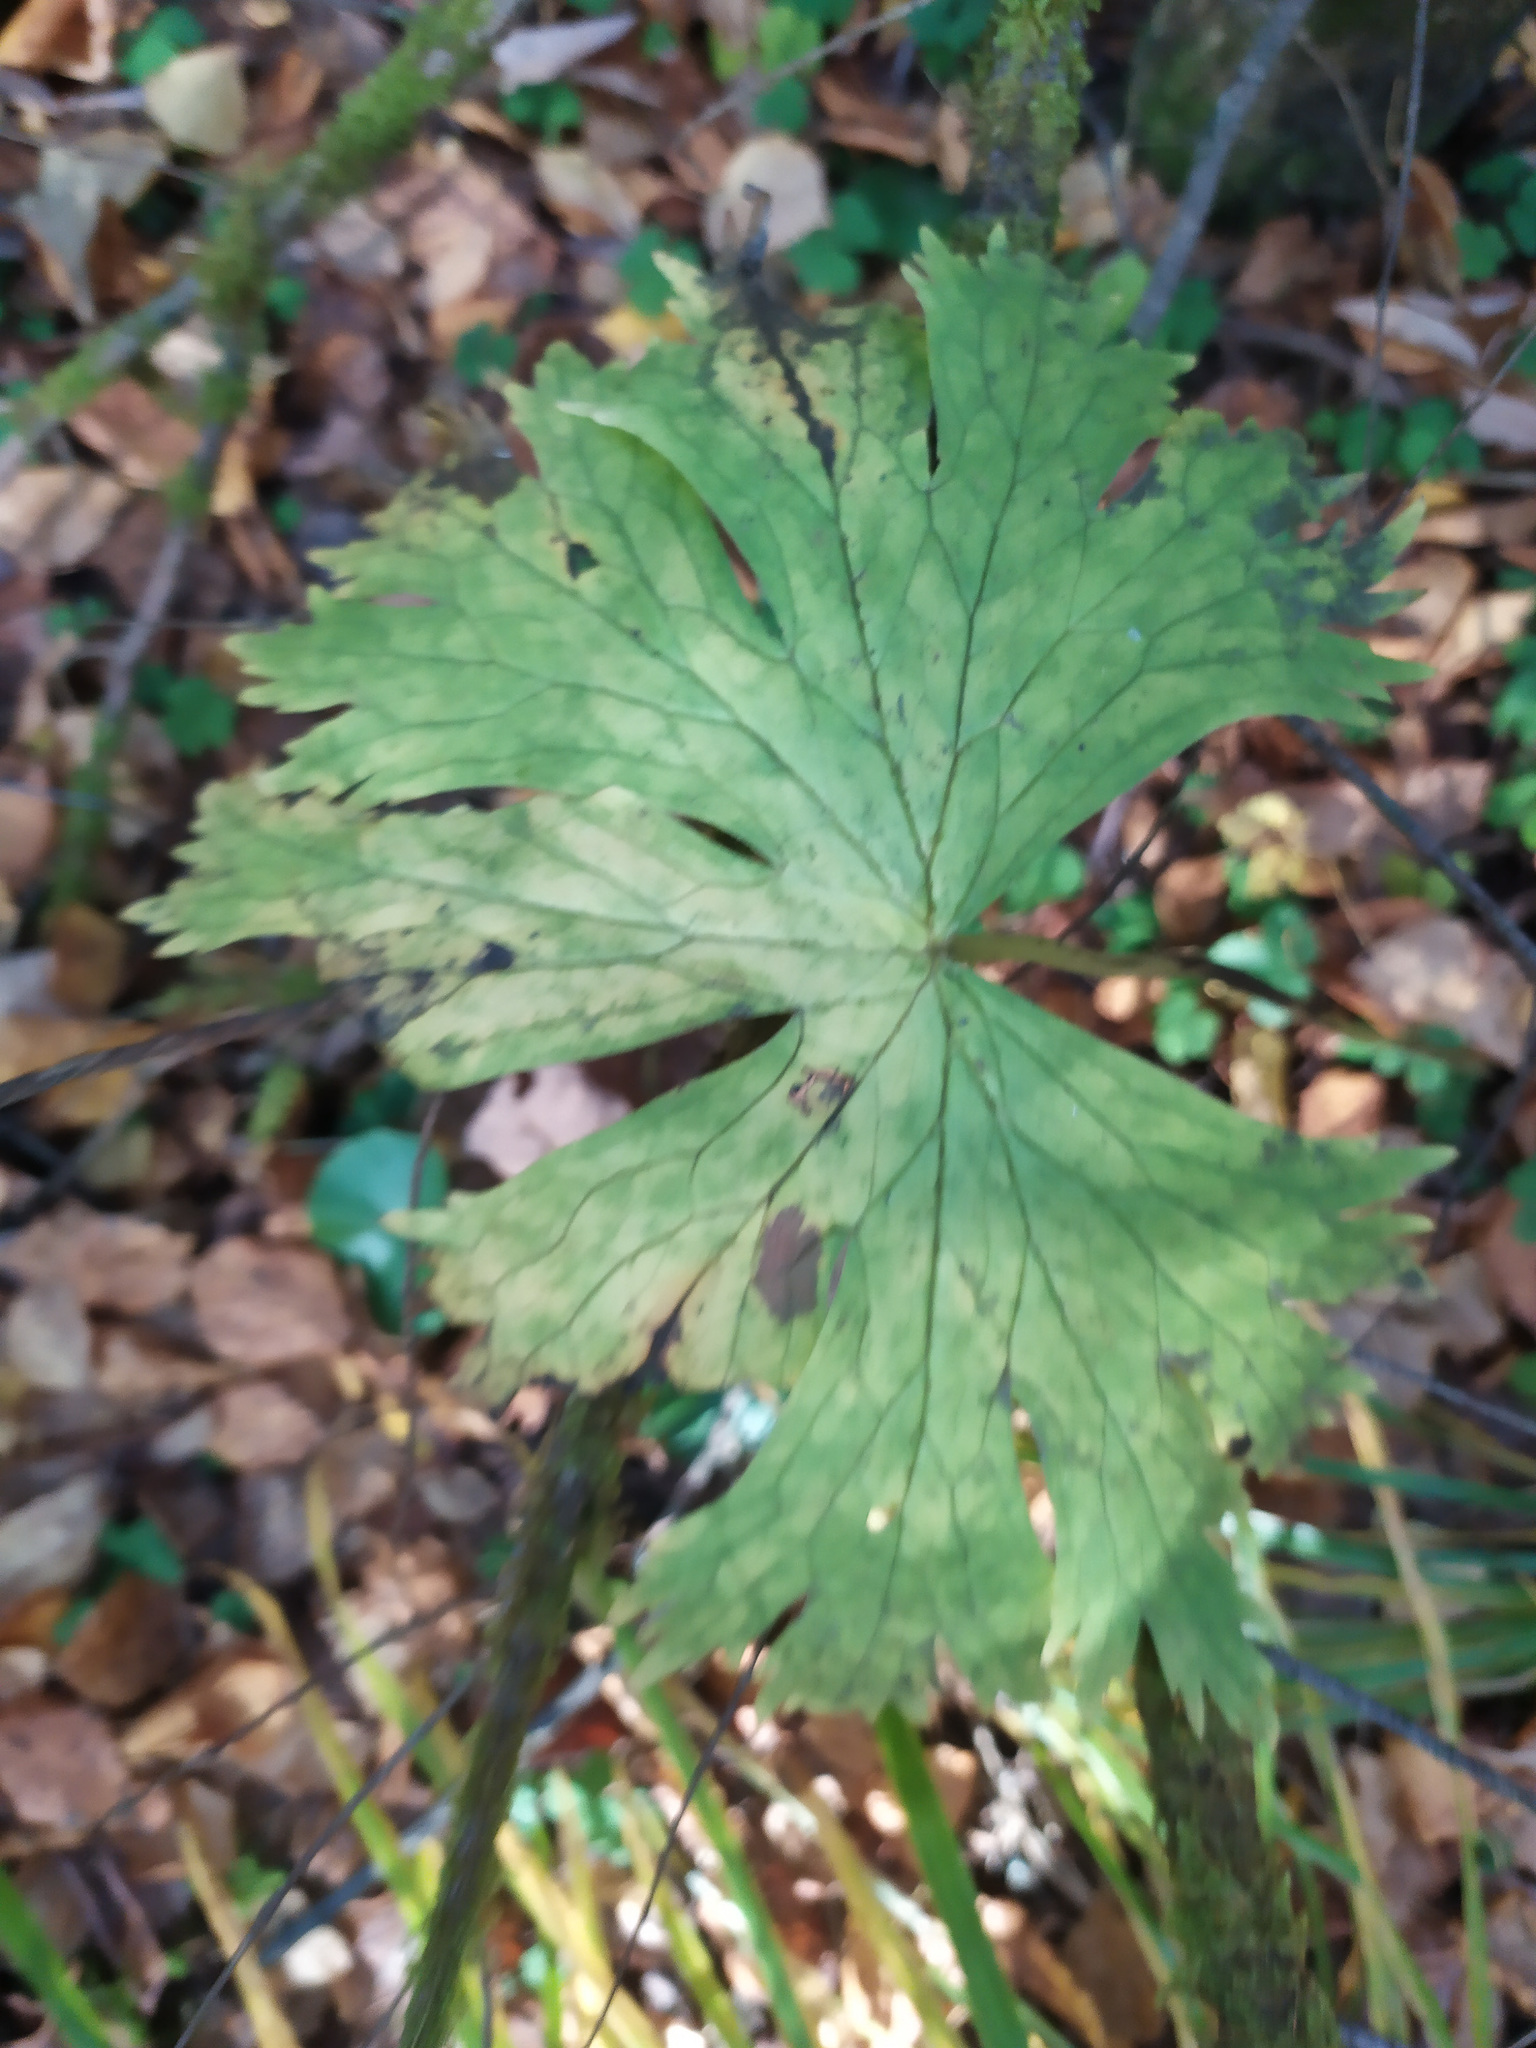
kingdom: Plantae
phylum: Tracheophyta
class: Magnoliopsida
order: Ranunculales
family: Ranunculaceae
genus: Aconitum
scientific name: Aconitum septentrionale
